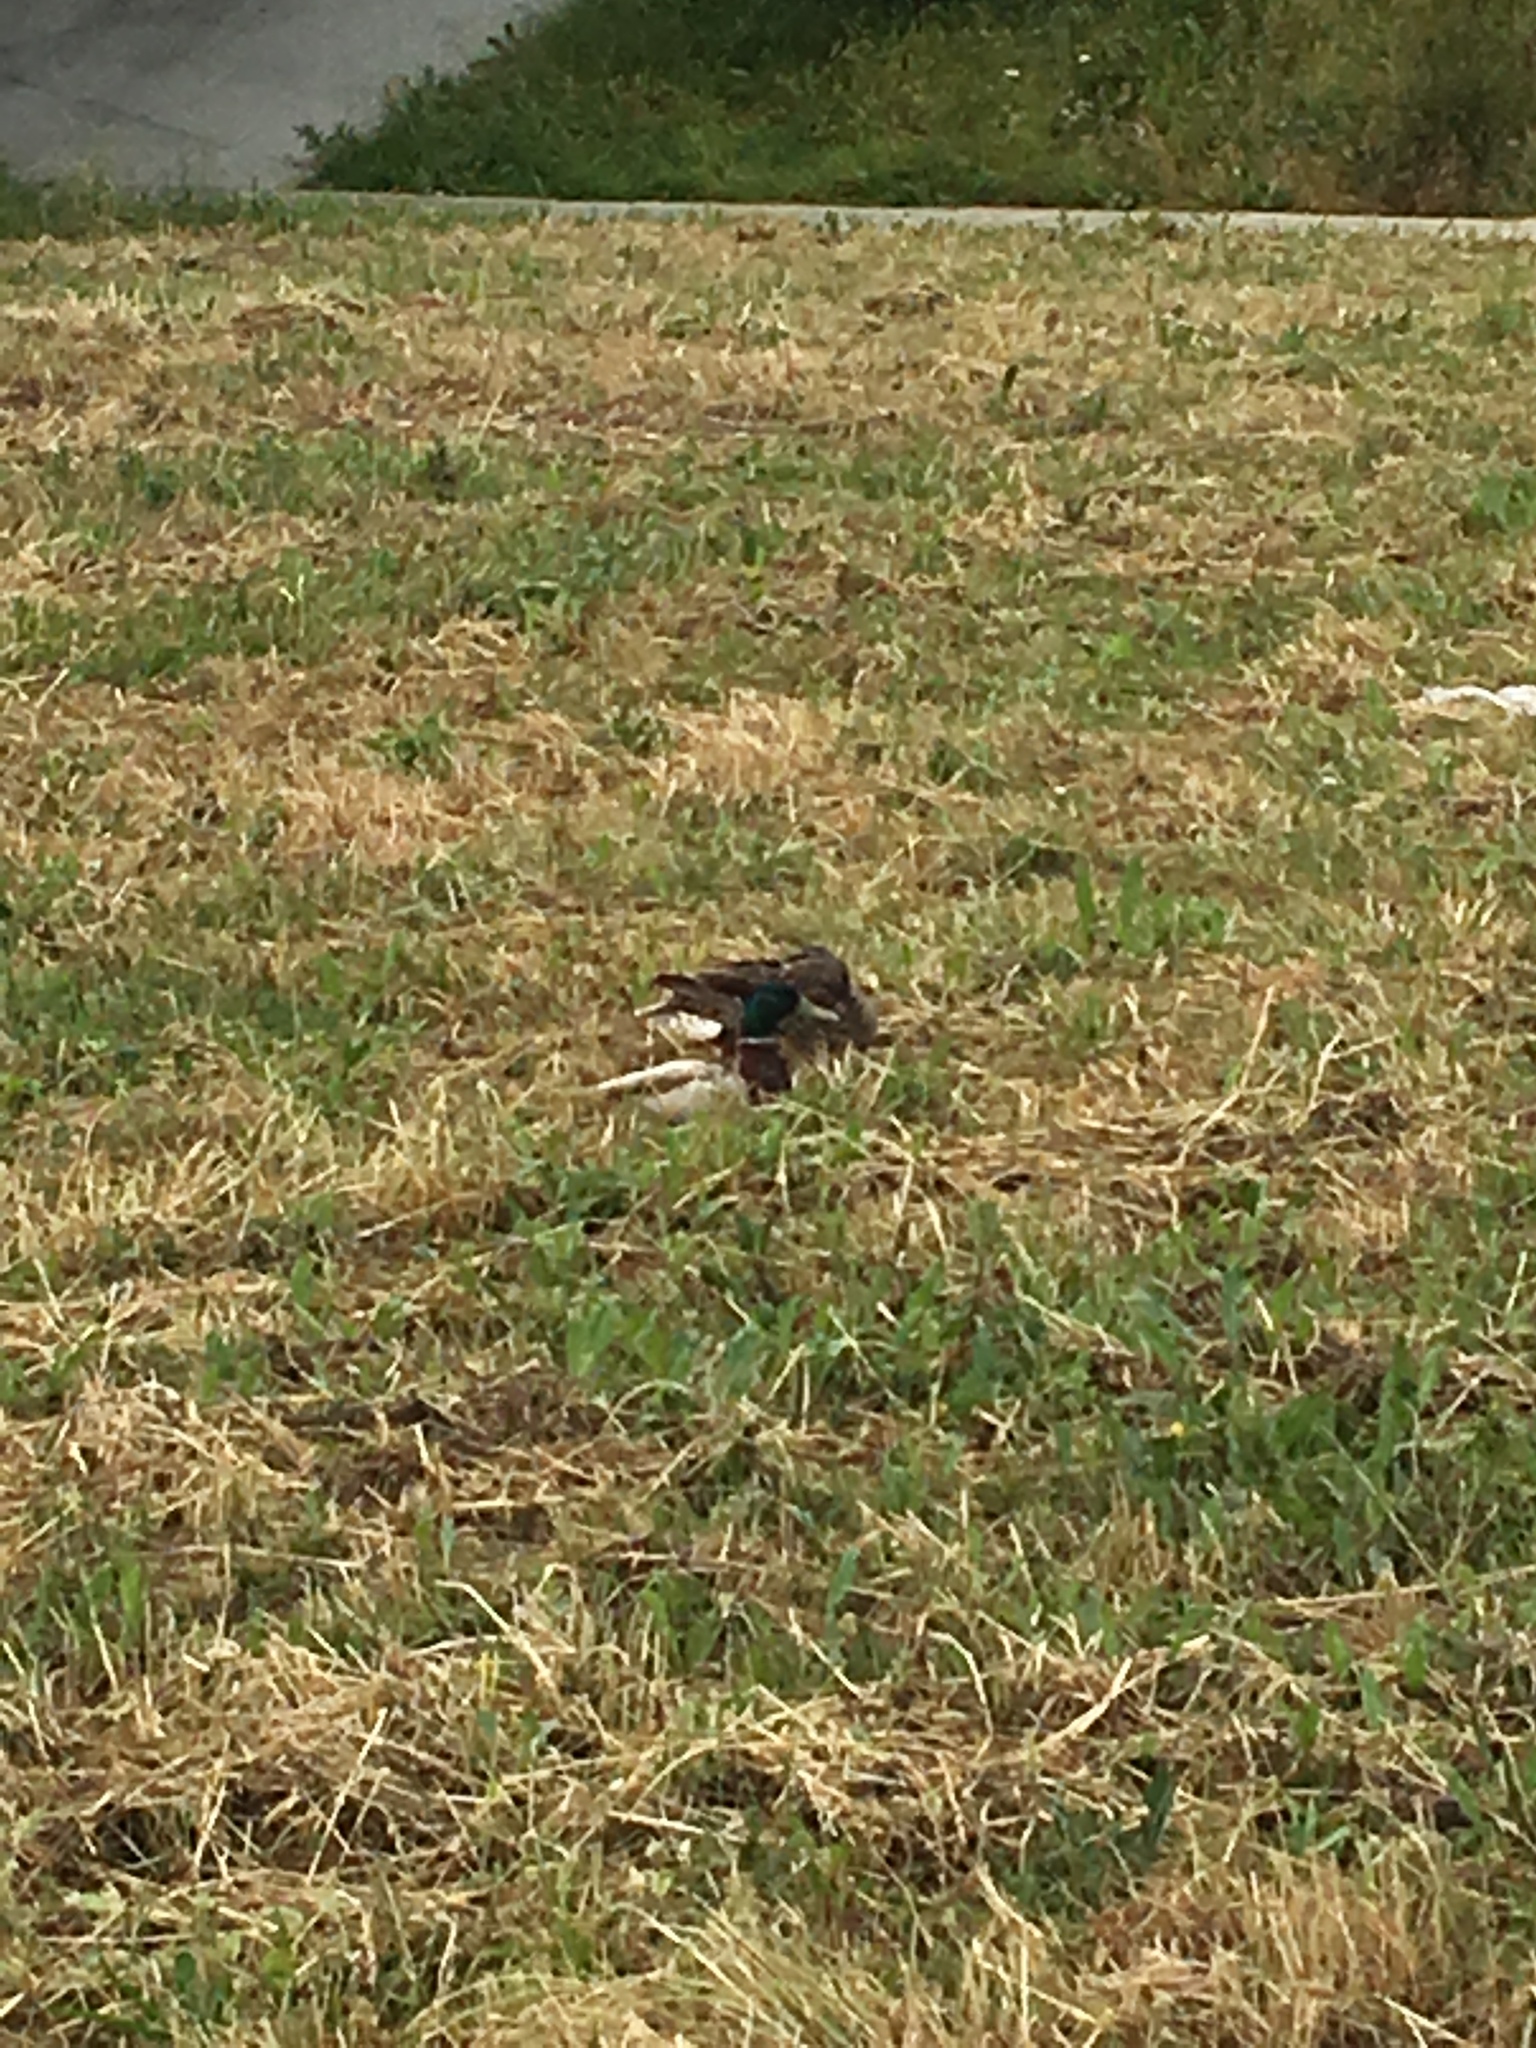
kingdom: Animalia
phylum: Chordata
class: Aves
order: Anseriformes
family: Anatidae
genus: Anas
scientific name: Anas platyrhynchos
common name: Mallard
